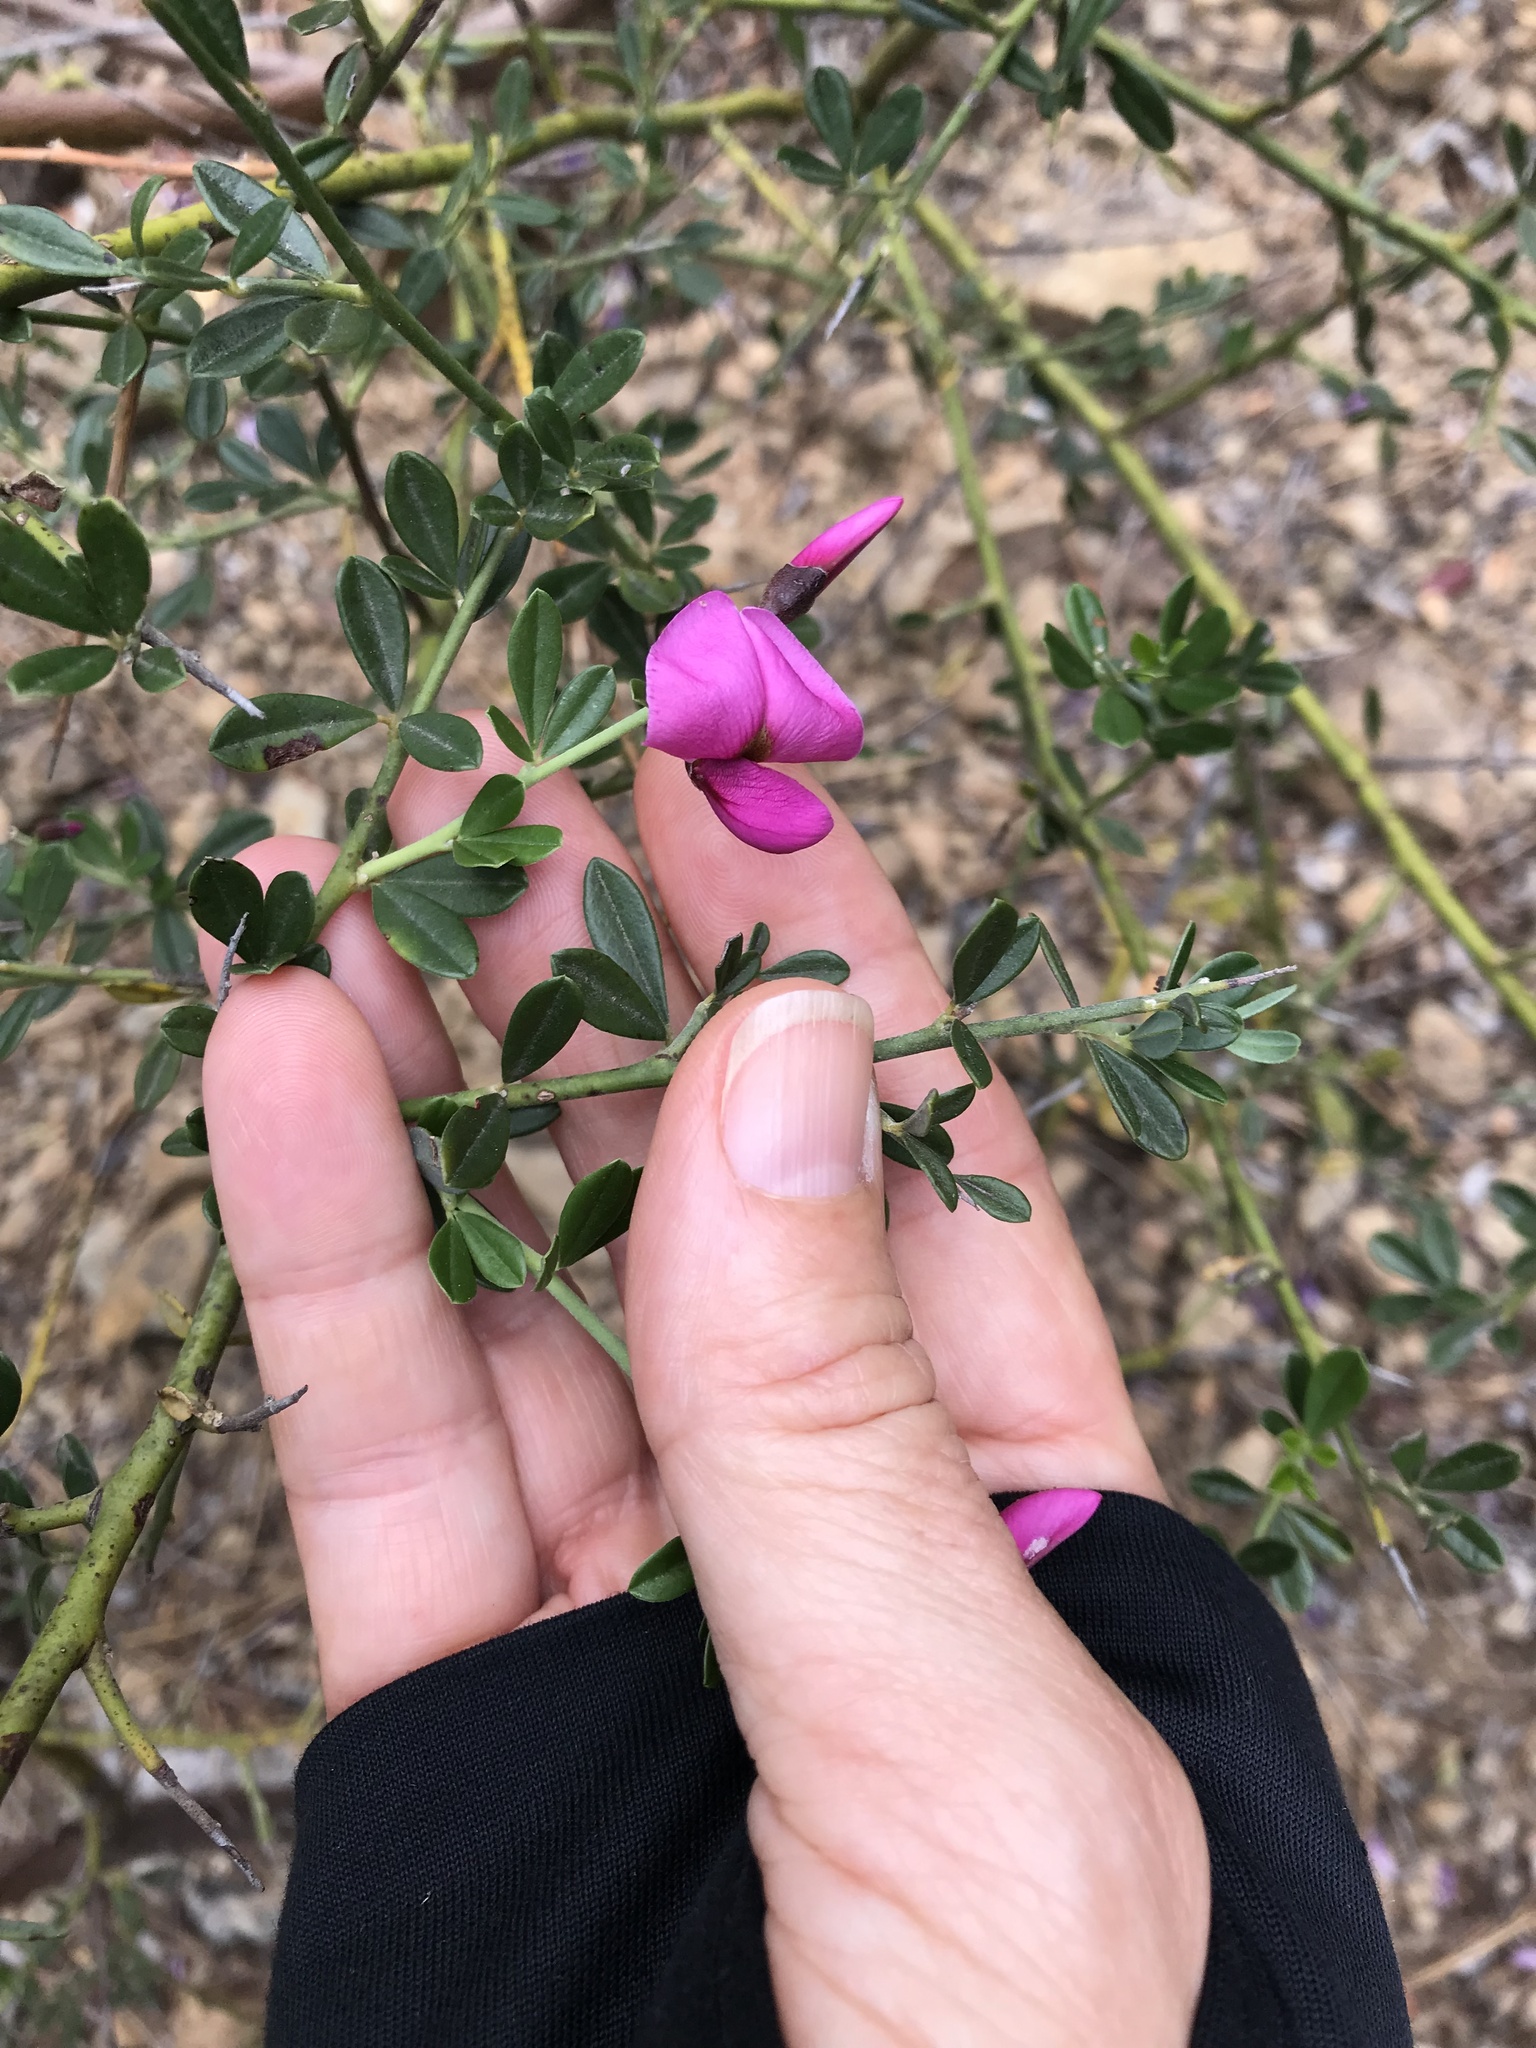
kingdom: Plantae
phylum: Tracheophyta
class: Magnoliopsida
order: Fabales
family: Fabaceae
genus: Pickeringia
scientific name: Pickeringia montana
